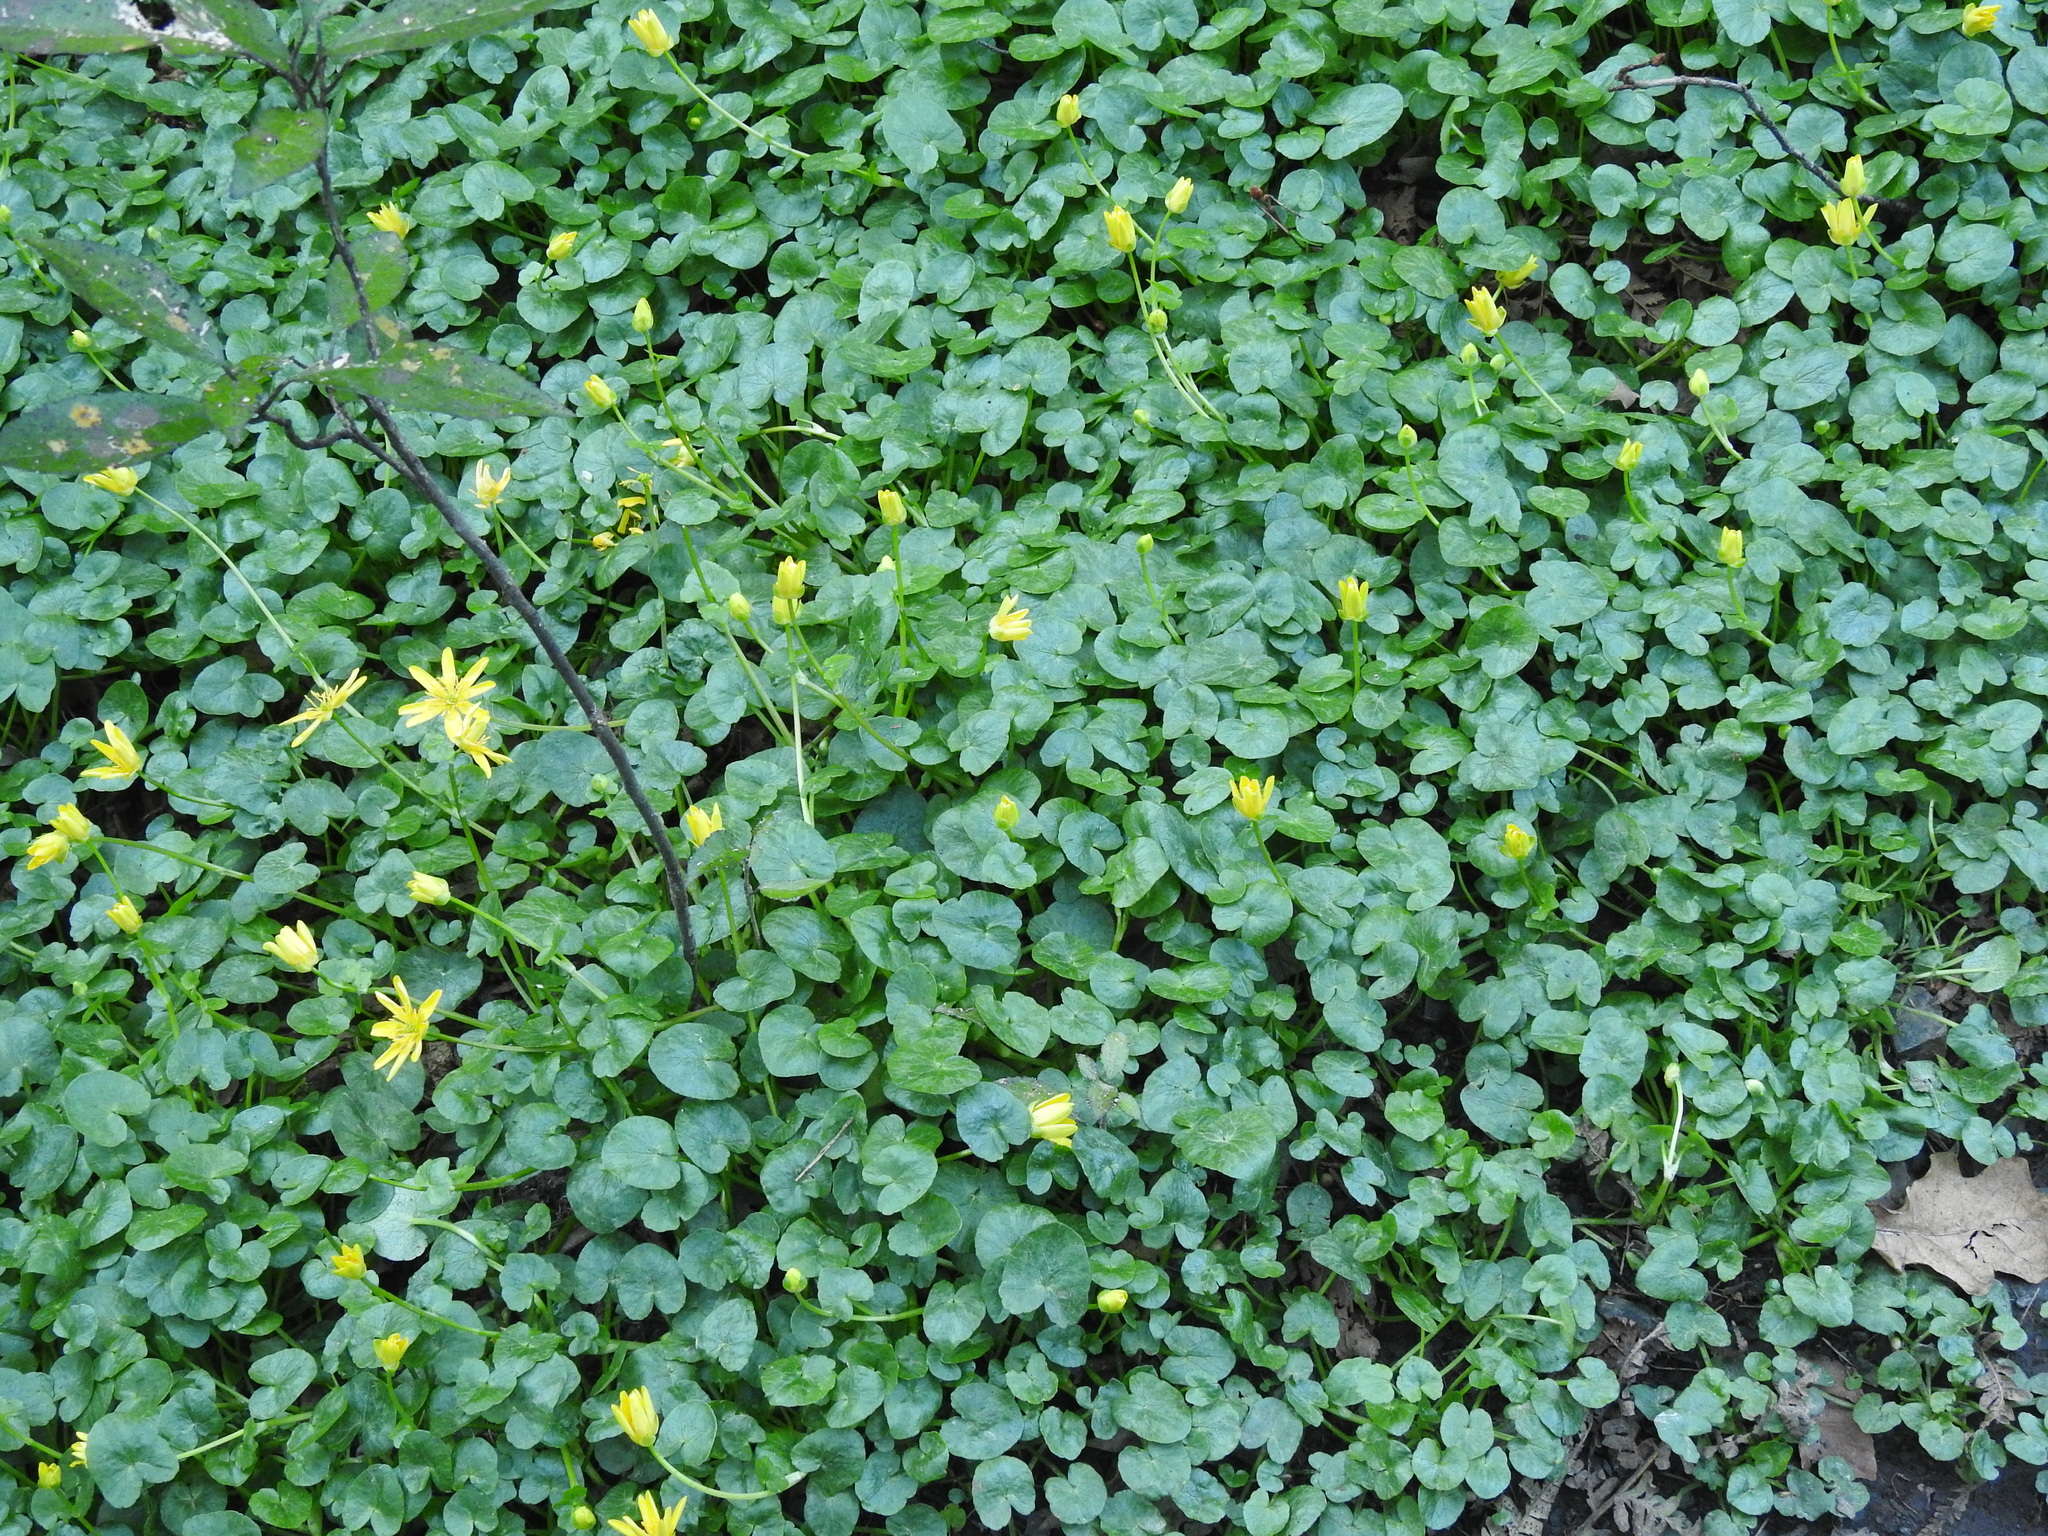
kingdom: Plantae
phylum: Tracheophyta
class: Magnoliopsida
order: Ranunculales
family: Ranunculaceae
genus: Ficaria
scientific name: Ficaria verna
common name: Lesser celandine
